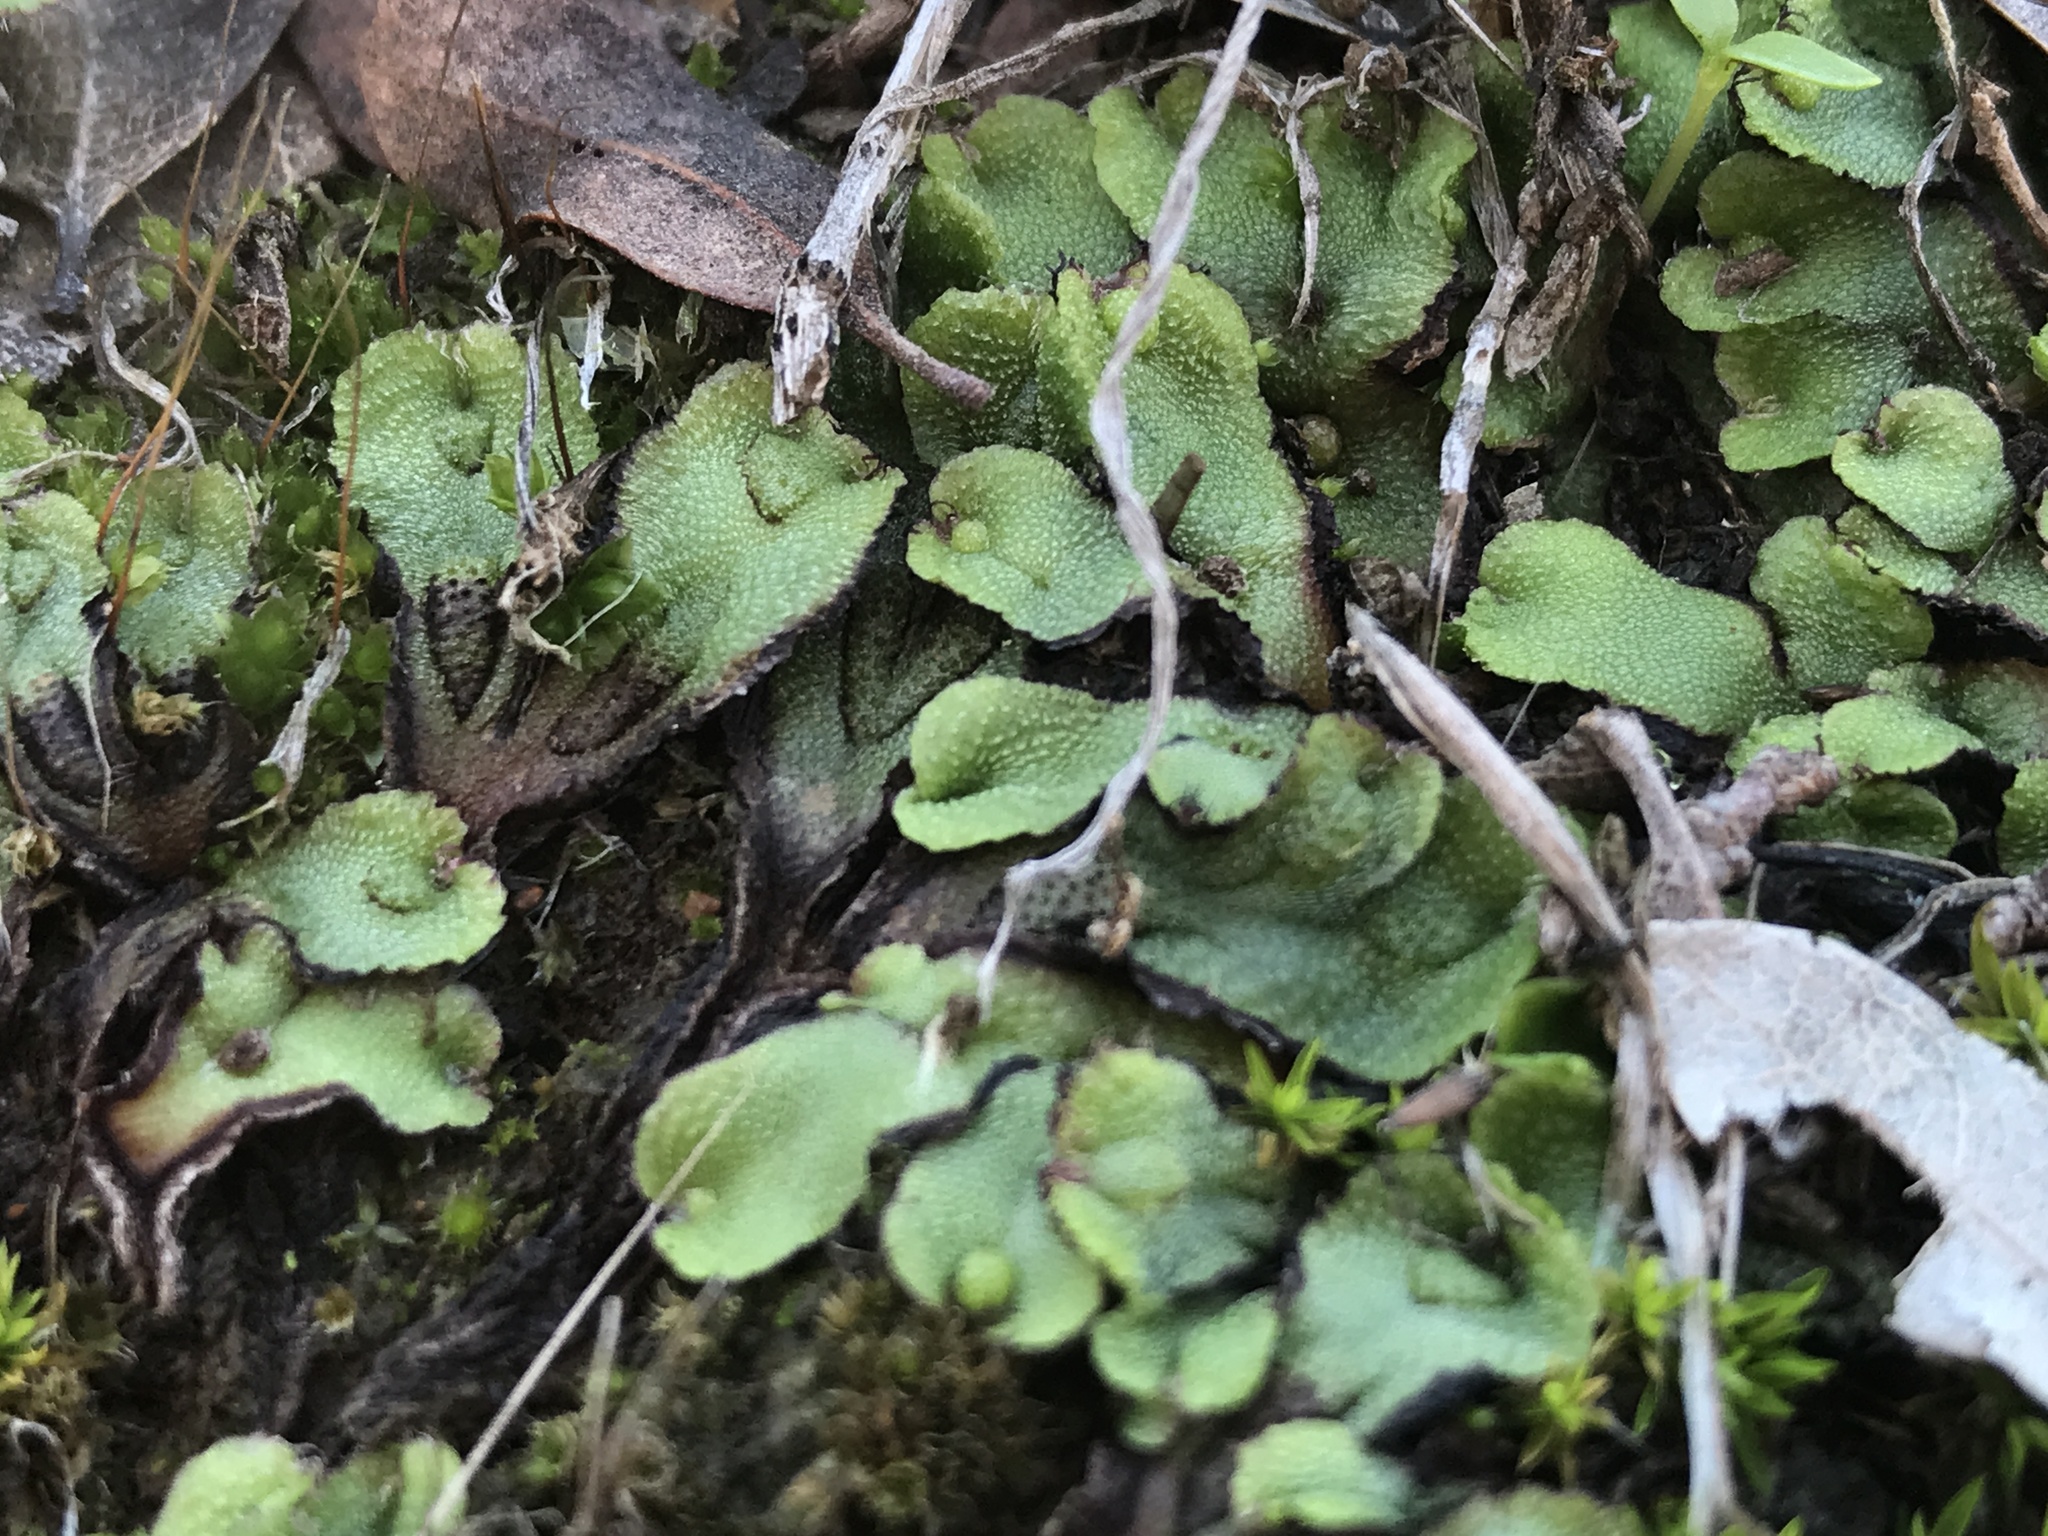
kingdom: Plantae
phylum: Marchantiophyta
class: Marchantiopsida
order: Marchantiales
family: Aytoniaceae
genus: Asterella
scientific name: Asterella californica
